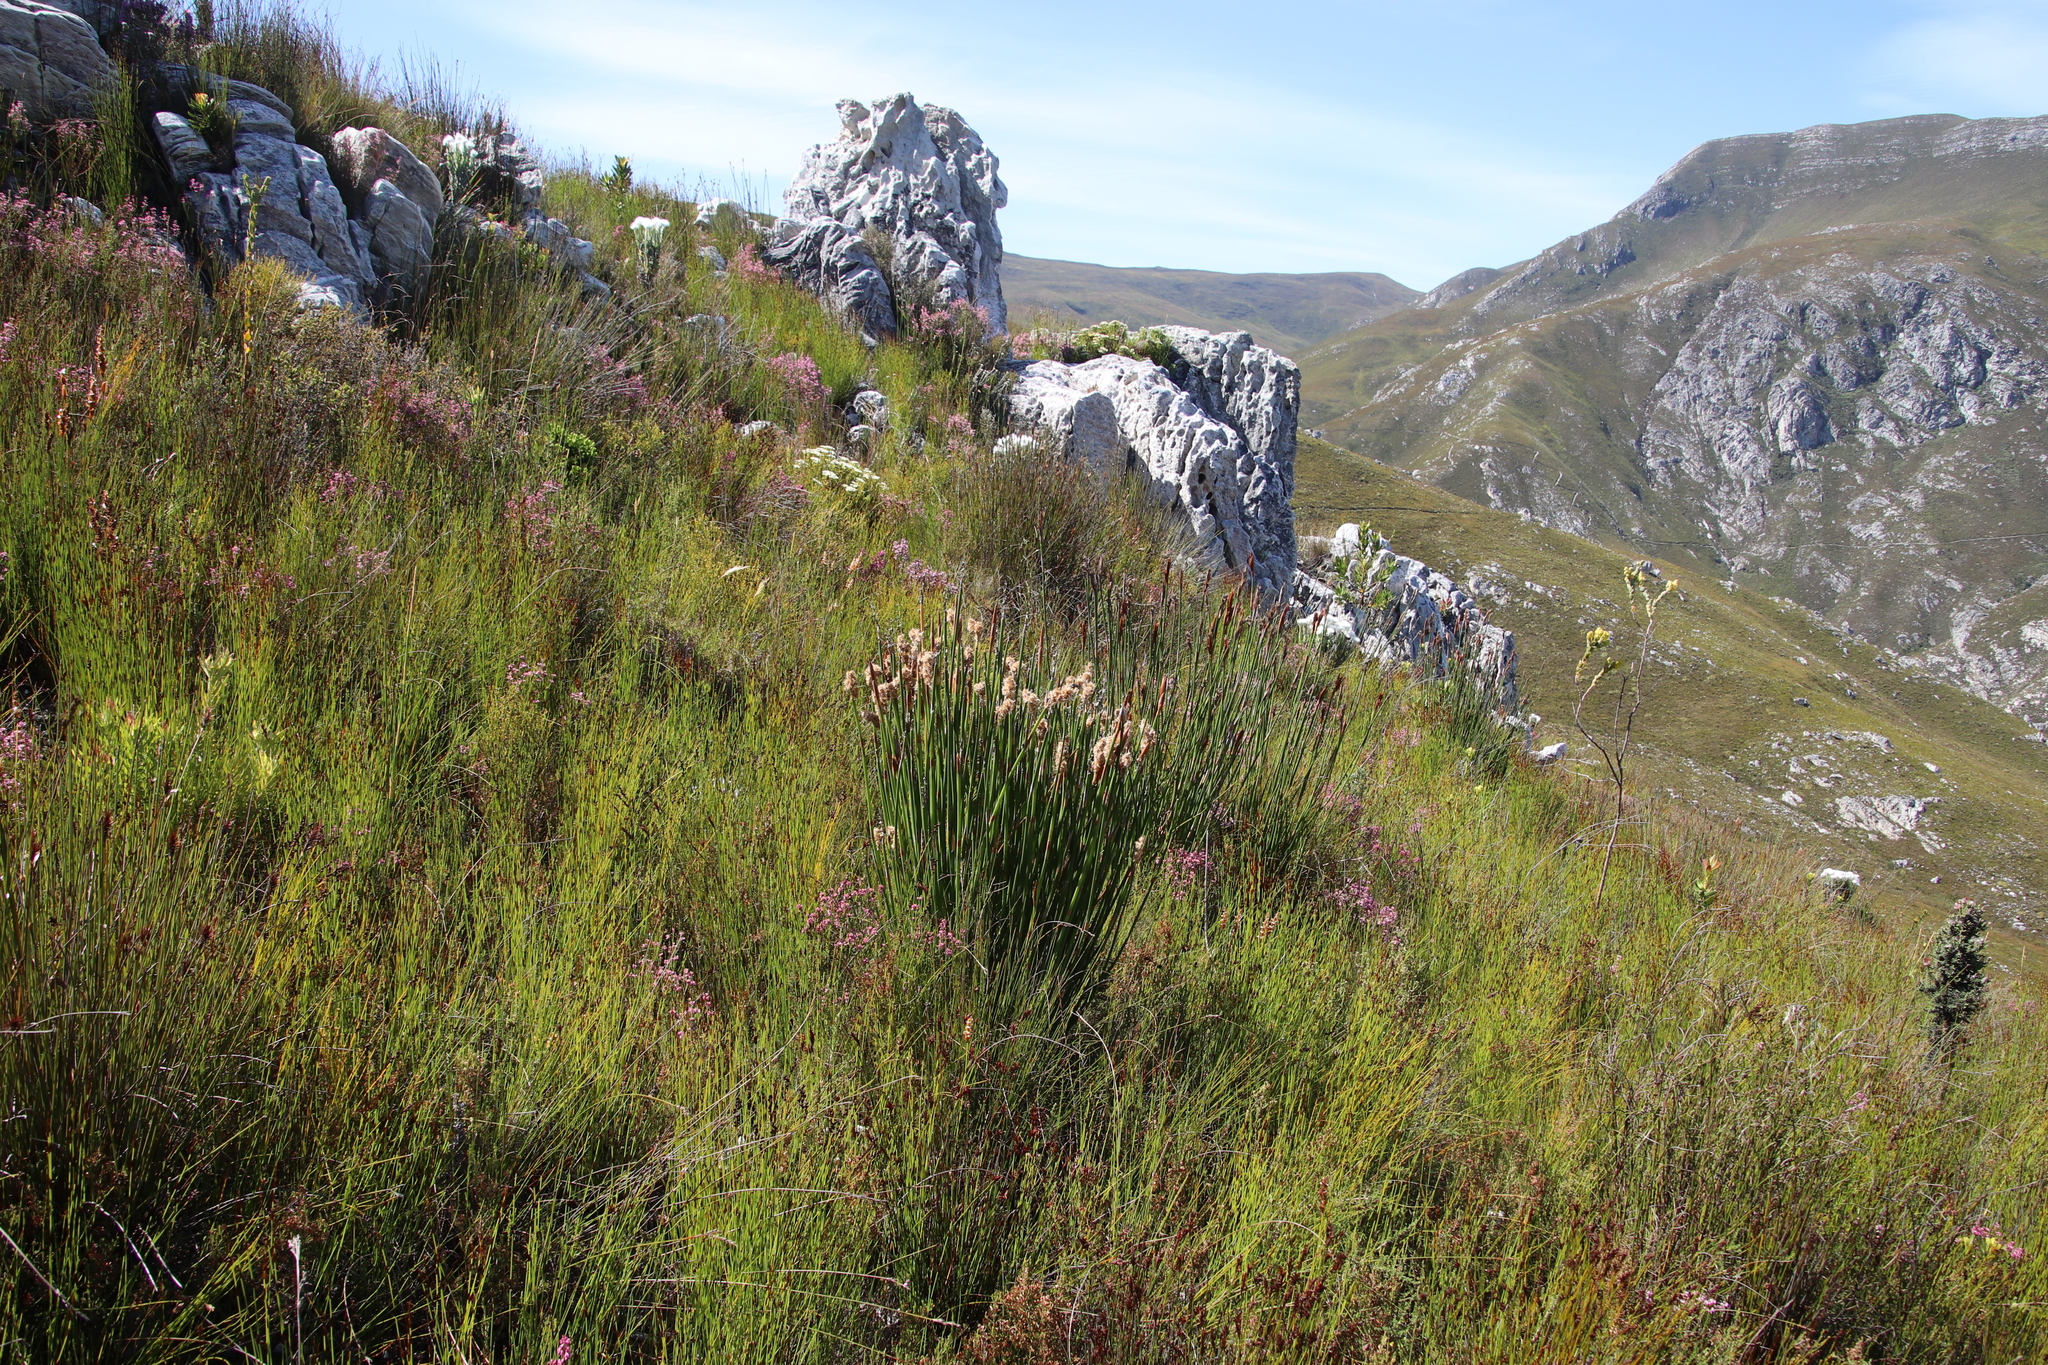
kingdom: Plantae
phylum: Tracheophyta
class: Liliopsida
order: Poales
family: Restionaceae
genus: Ceratocaryum
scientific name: Ceratocaryum caespitosum
